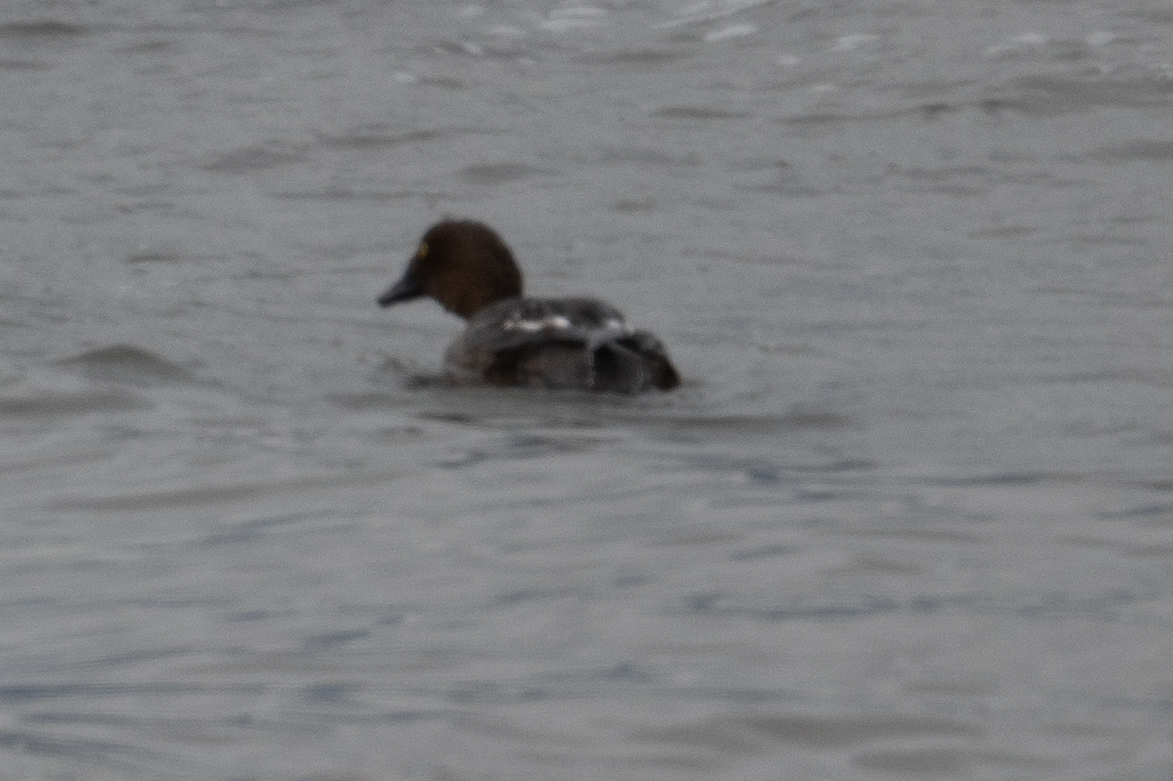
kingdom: Animalia
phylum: Chordata
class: Aves
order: Anseriformes
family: Anatidae
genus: Bucephala
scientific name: Bucephala clangula
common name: Common goldeneye
